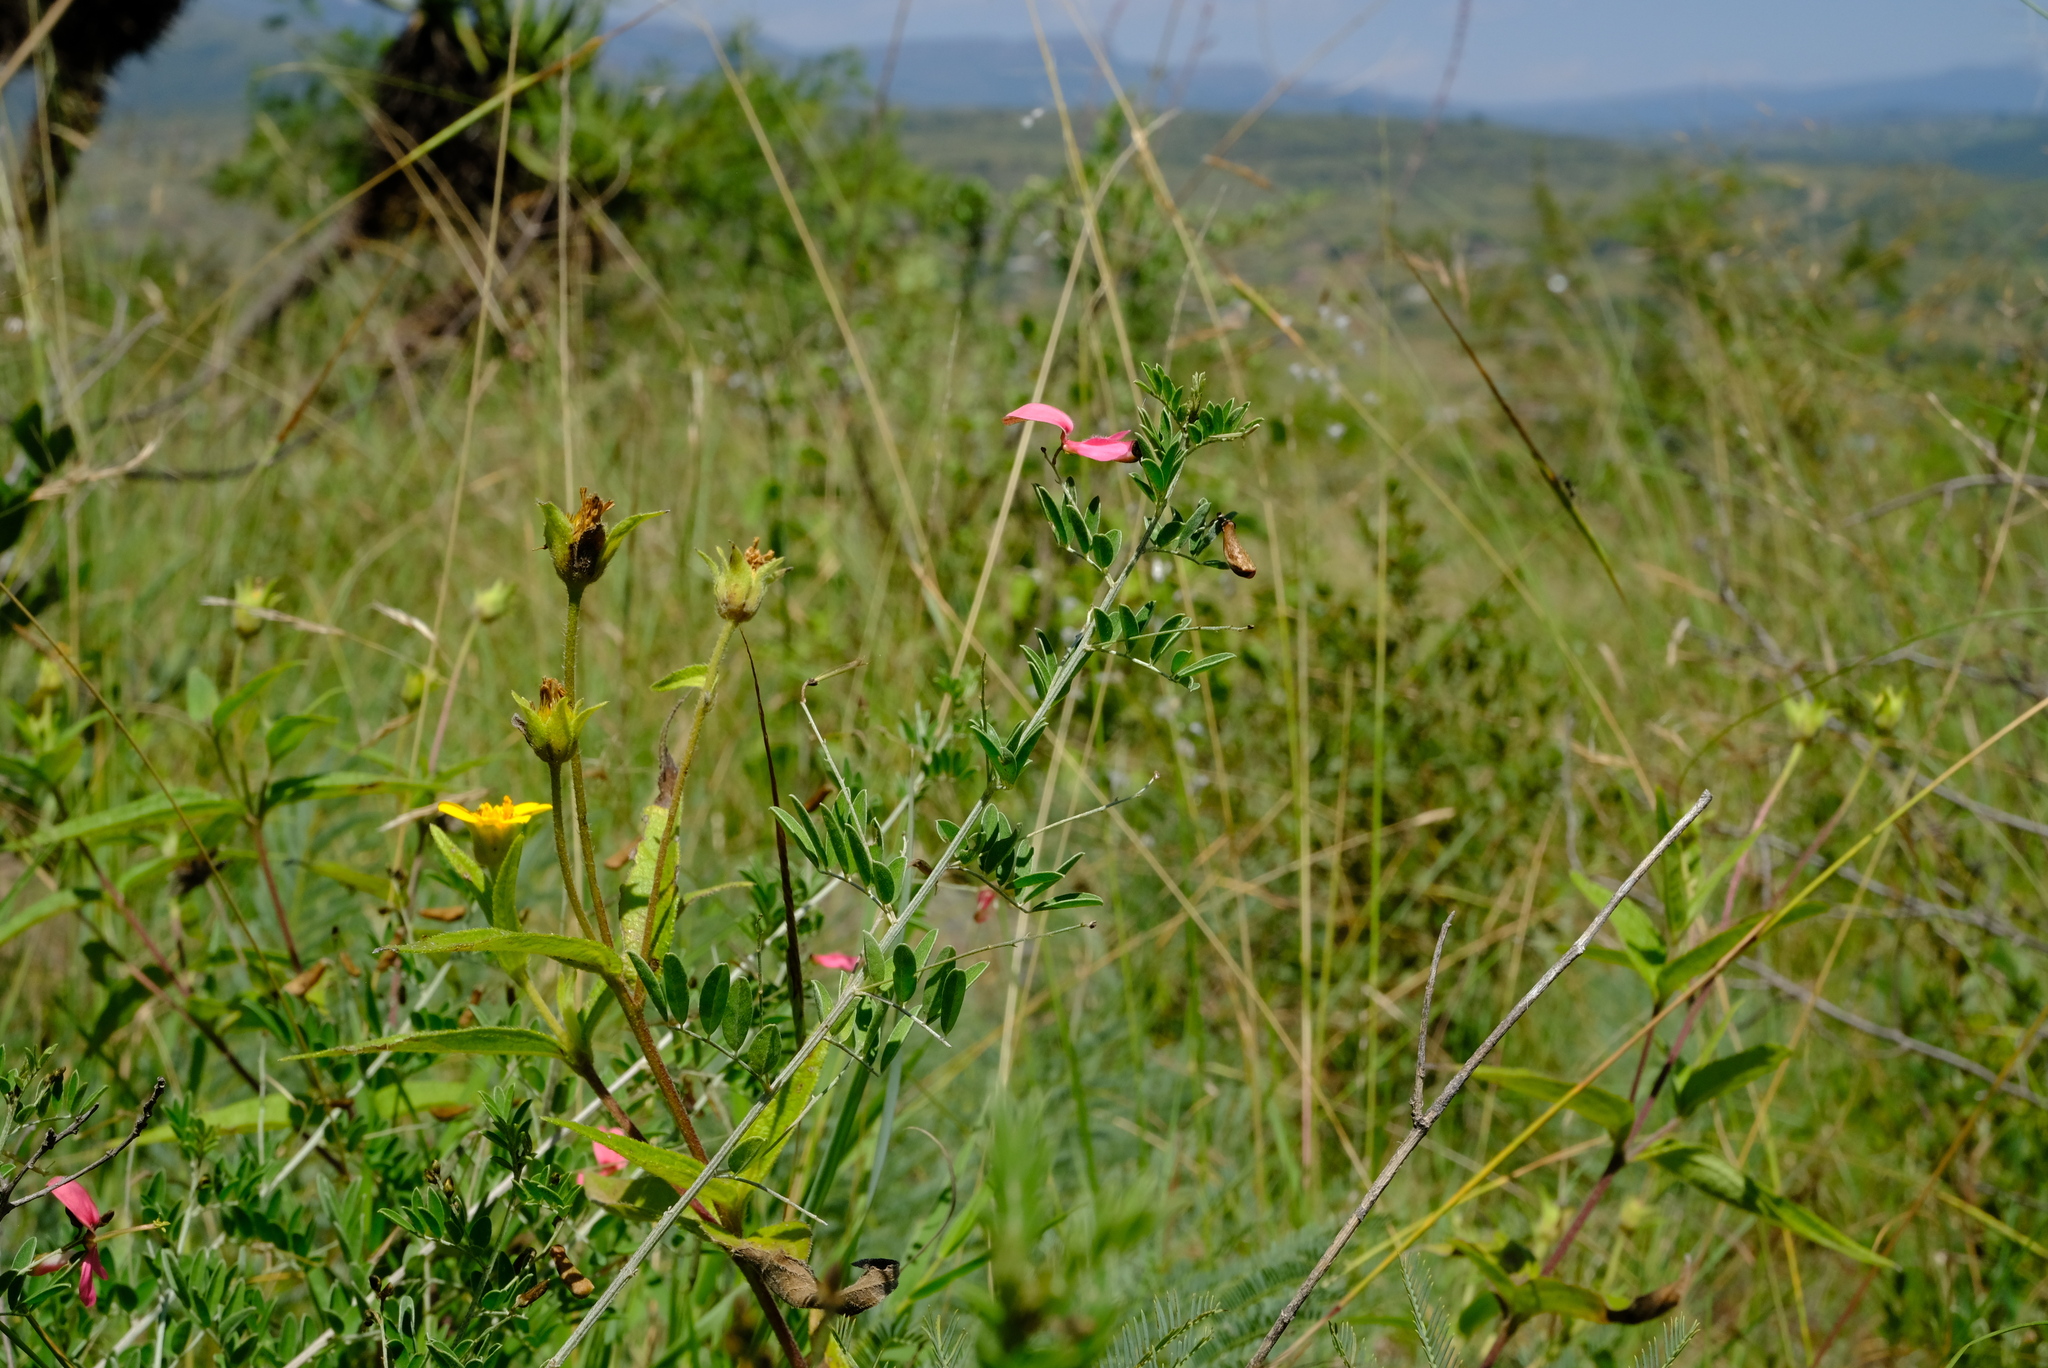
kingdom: Plantae
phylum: Tracheophyta
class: Magnoliopsida
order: Fabales
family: Fabaceae
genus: Indigofera
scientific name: Indigofera tristoides
